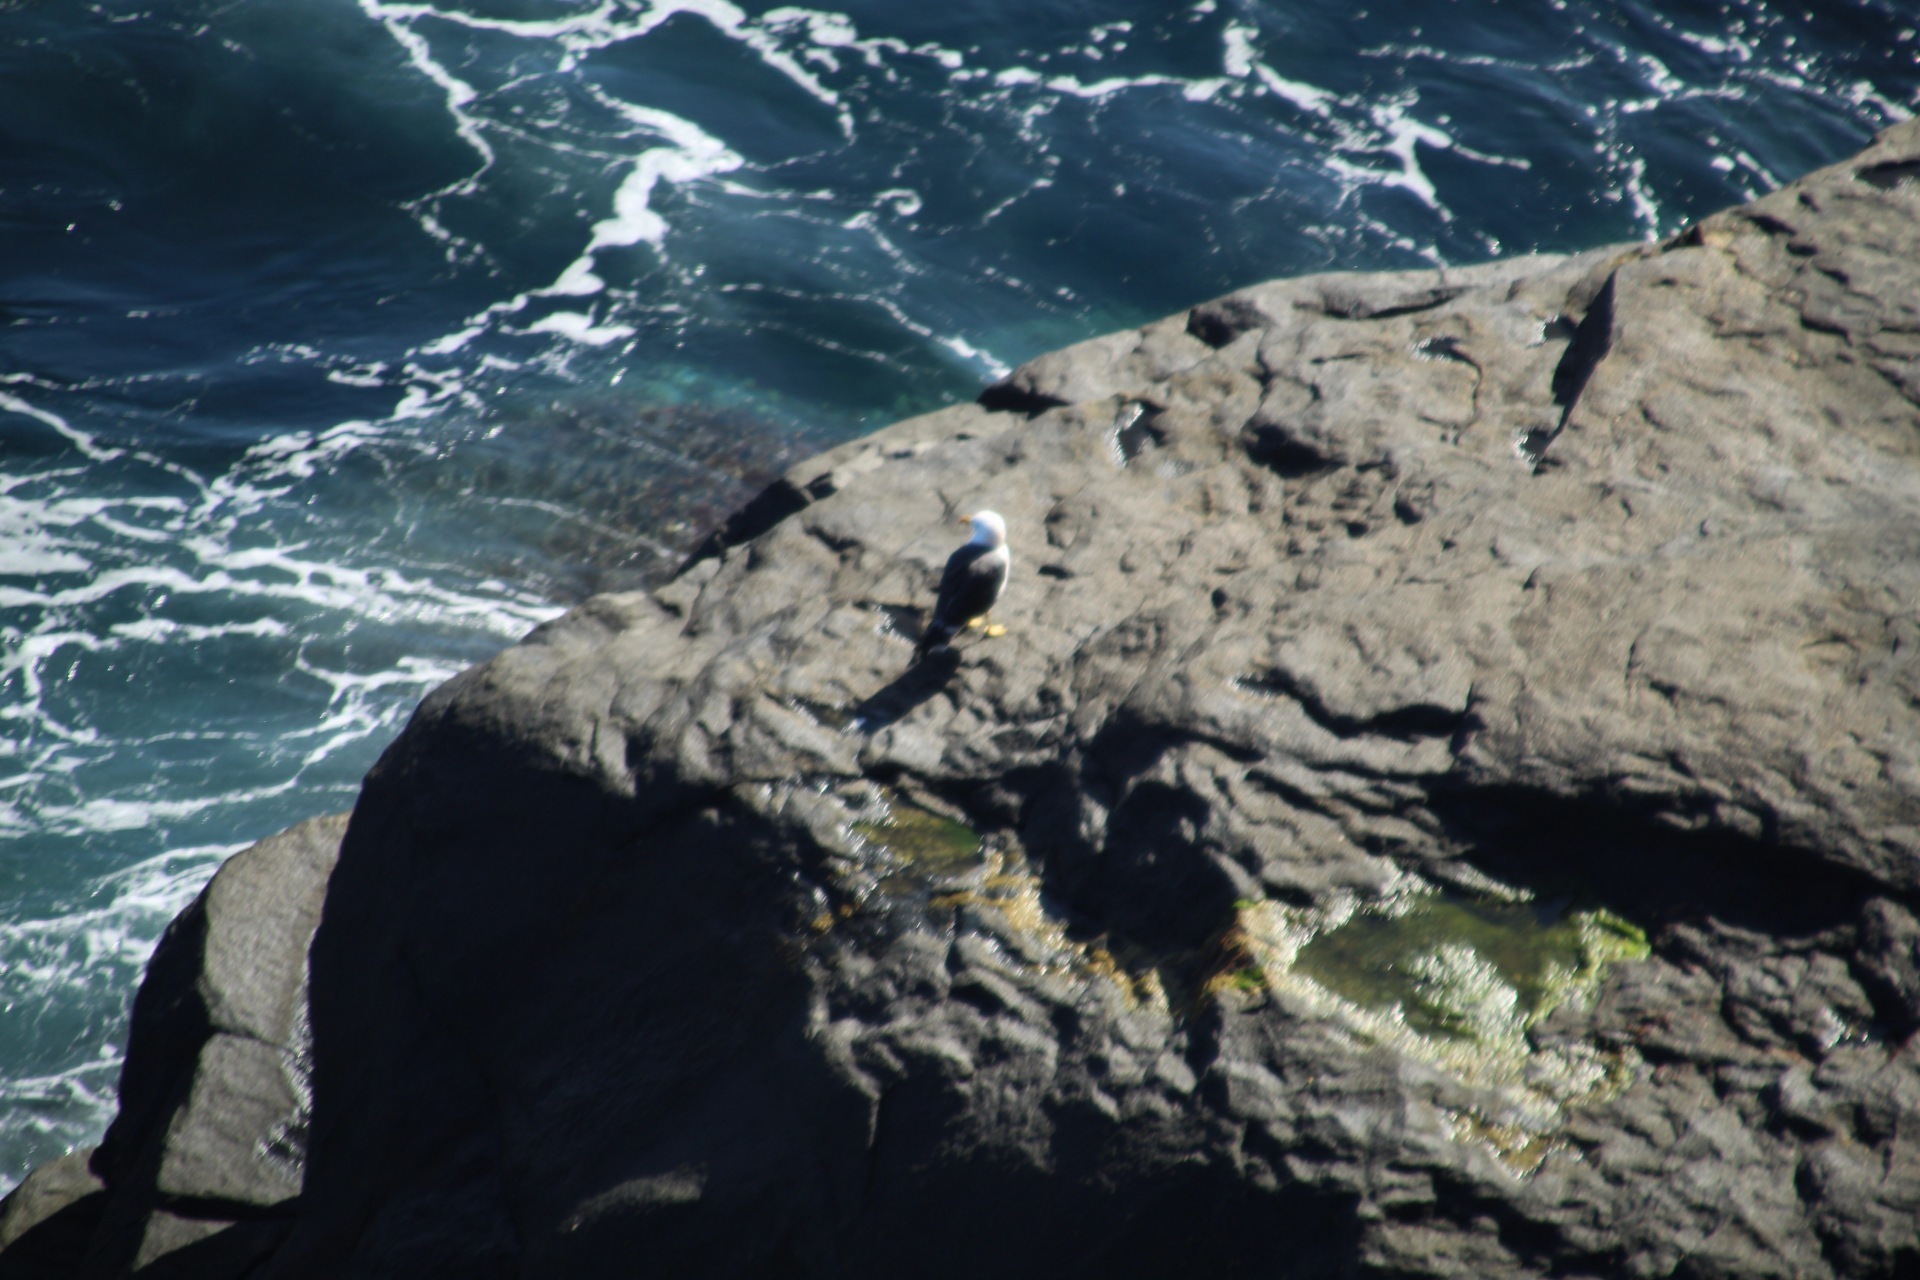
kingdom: Animalia
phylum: Chordata
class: Aves
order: Charadriiformes
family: Laridae
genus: Larus
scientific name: Larus pacificus
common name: Pacific gull
